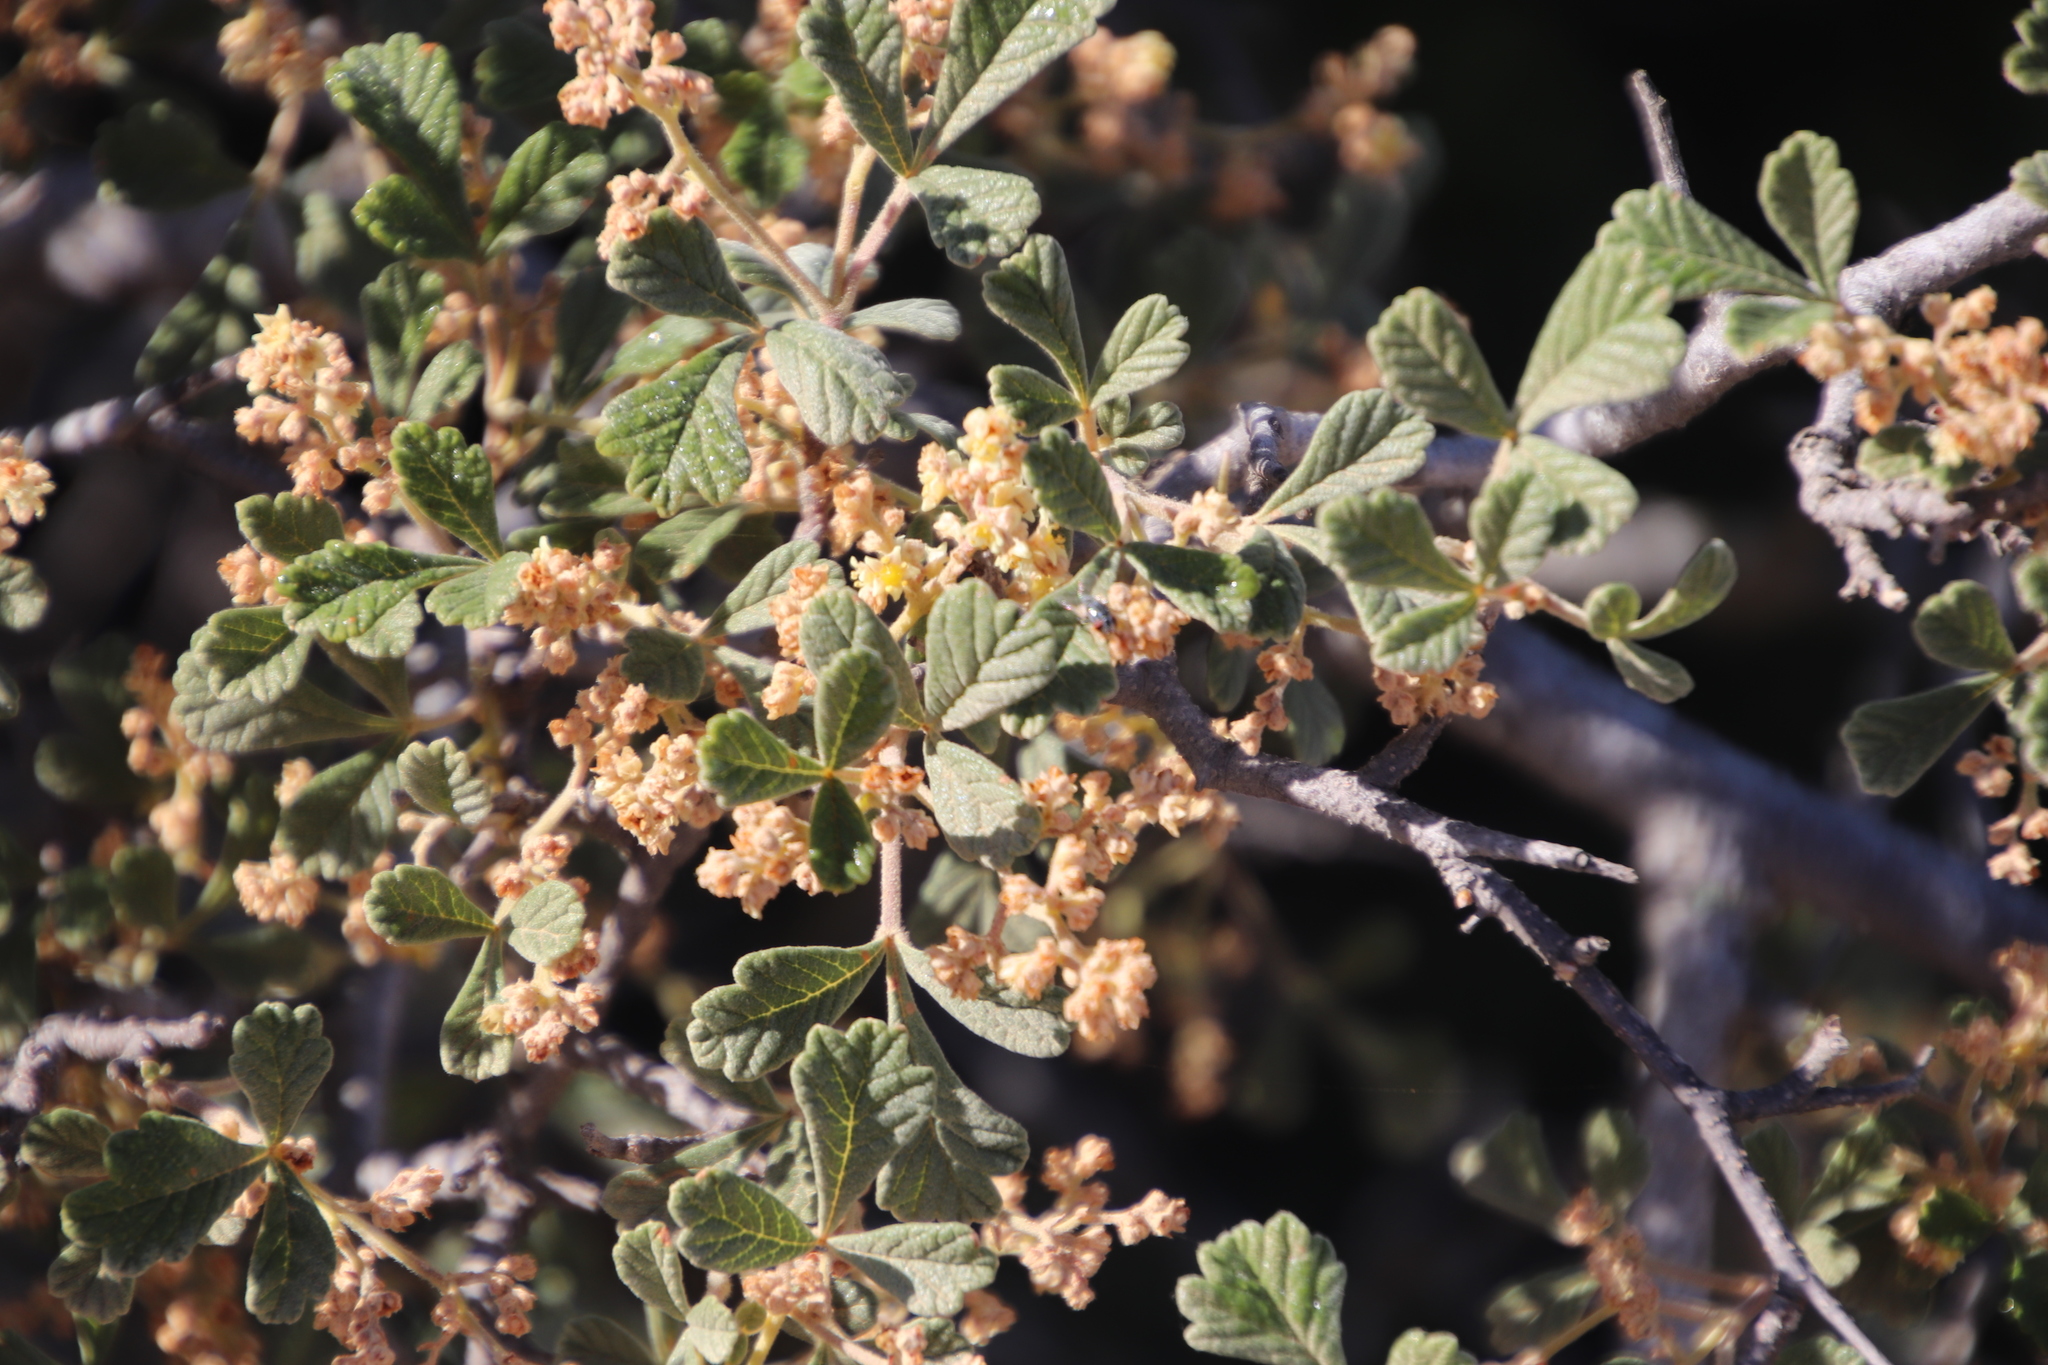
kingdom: Plantae
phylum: Tracheophyta
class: Magnoliopsida
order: Sapindales
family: Anacardiaceae
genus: Searsia
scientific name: Searsia incisa
